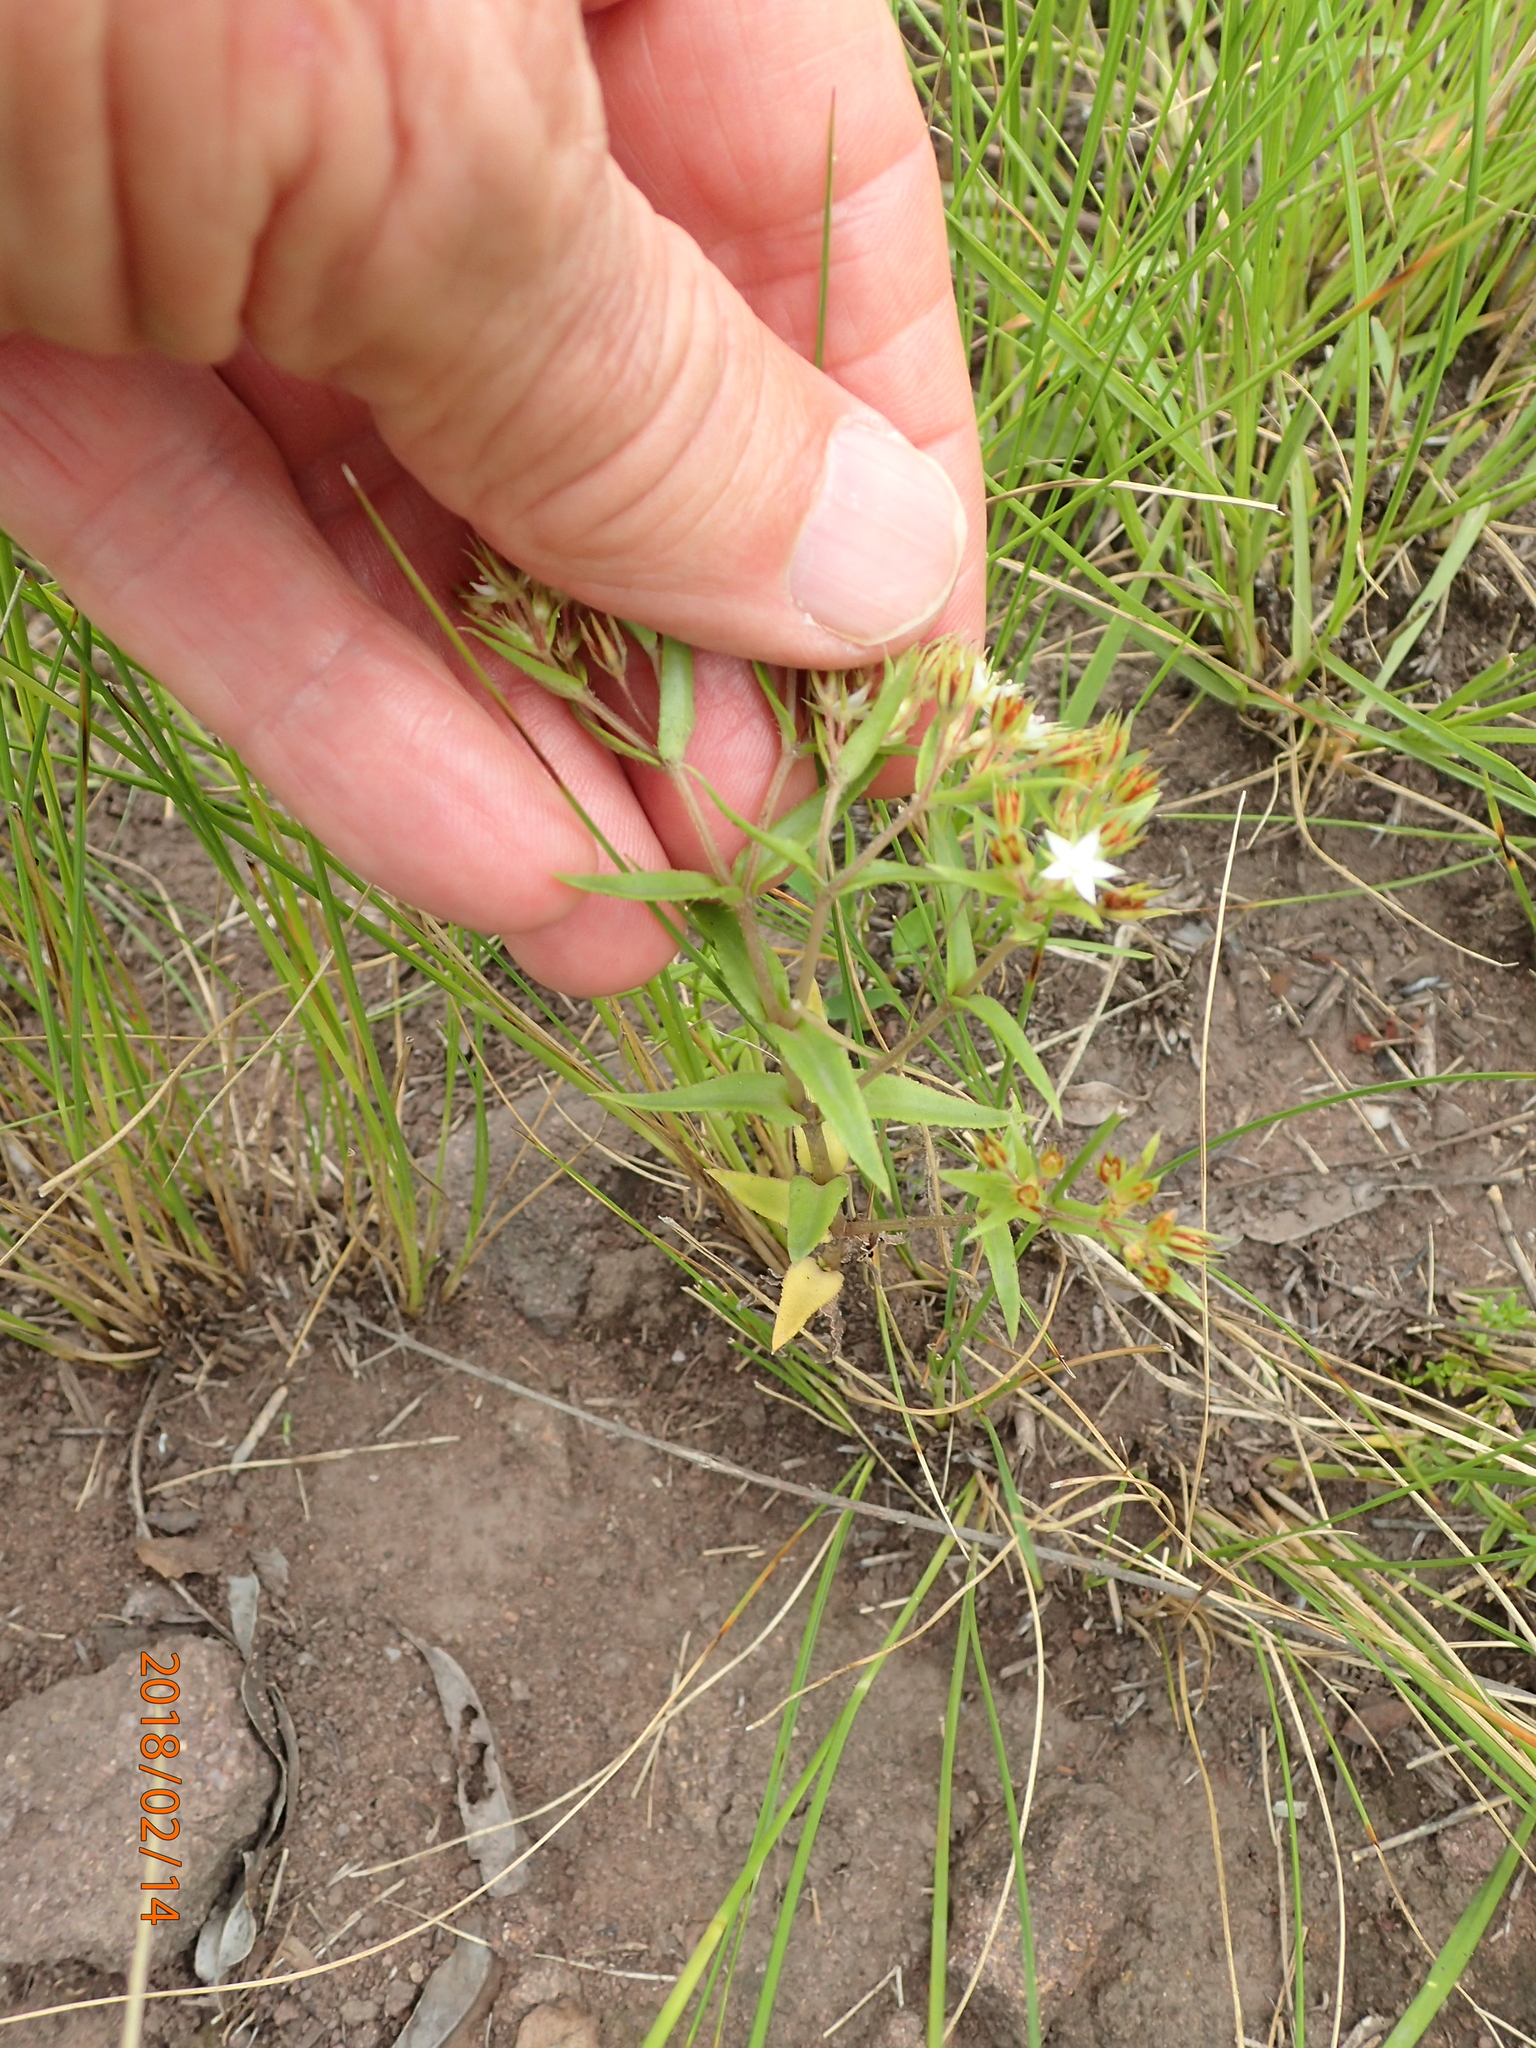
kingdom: Plantae
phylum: Tracheophyta
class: Magnoliopsida
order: Saxifragales
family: Crassulaceae
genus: Crassula
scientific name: Crassula pellucida
